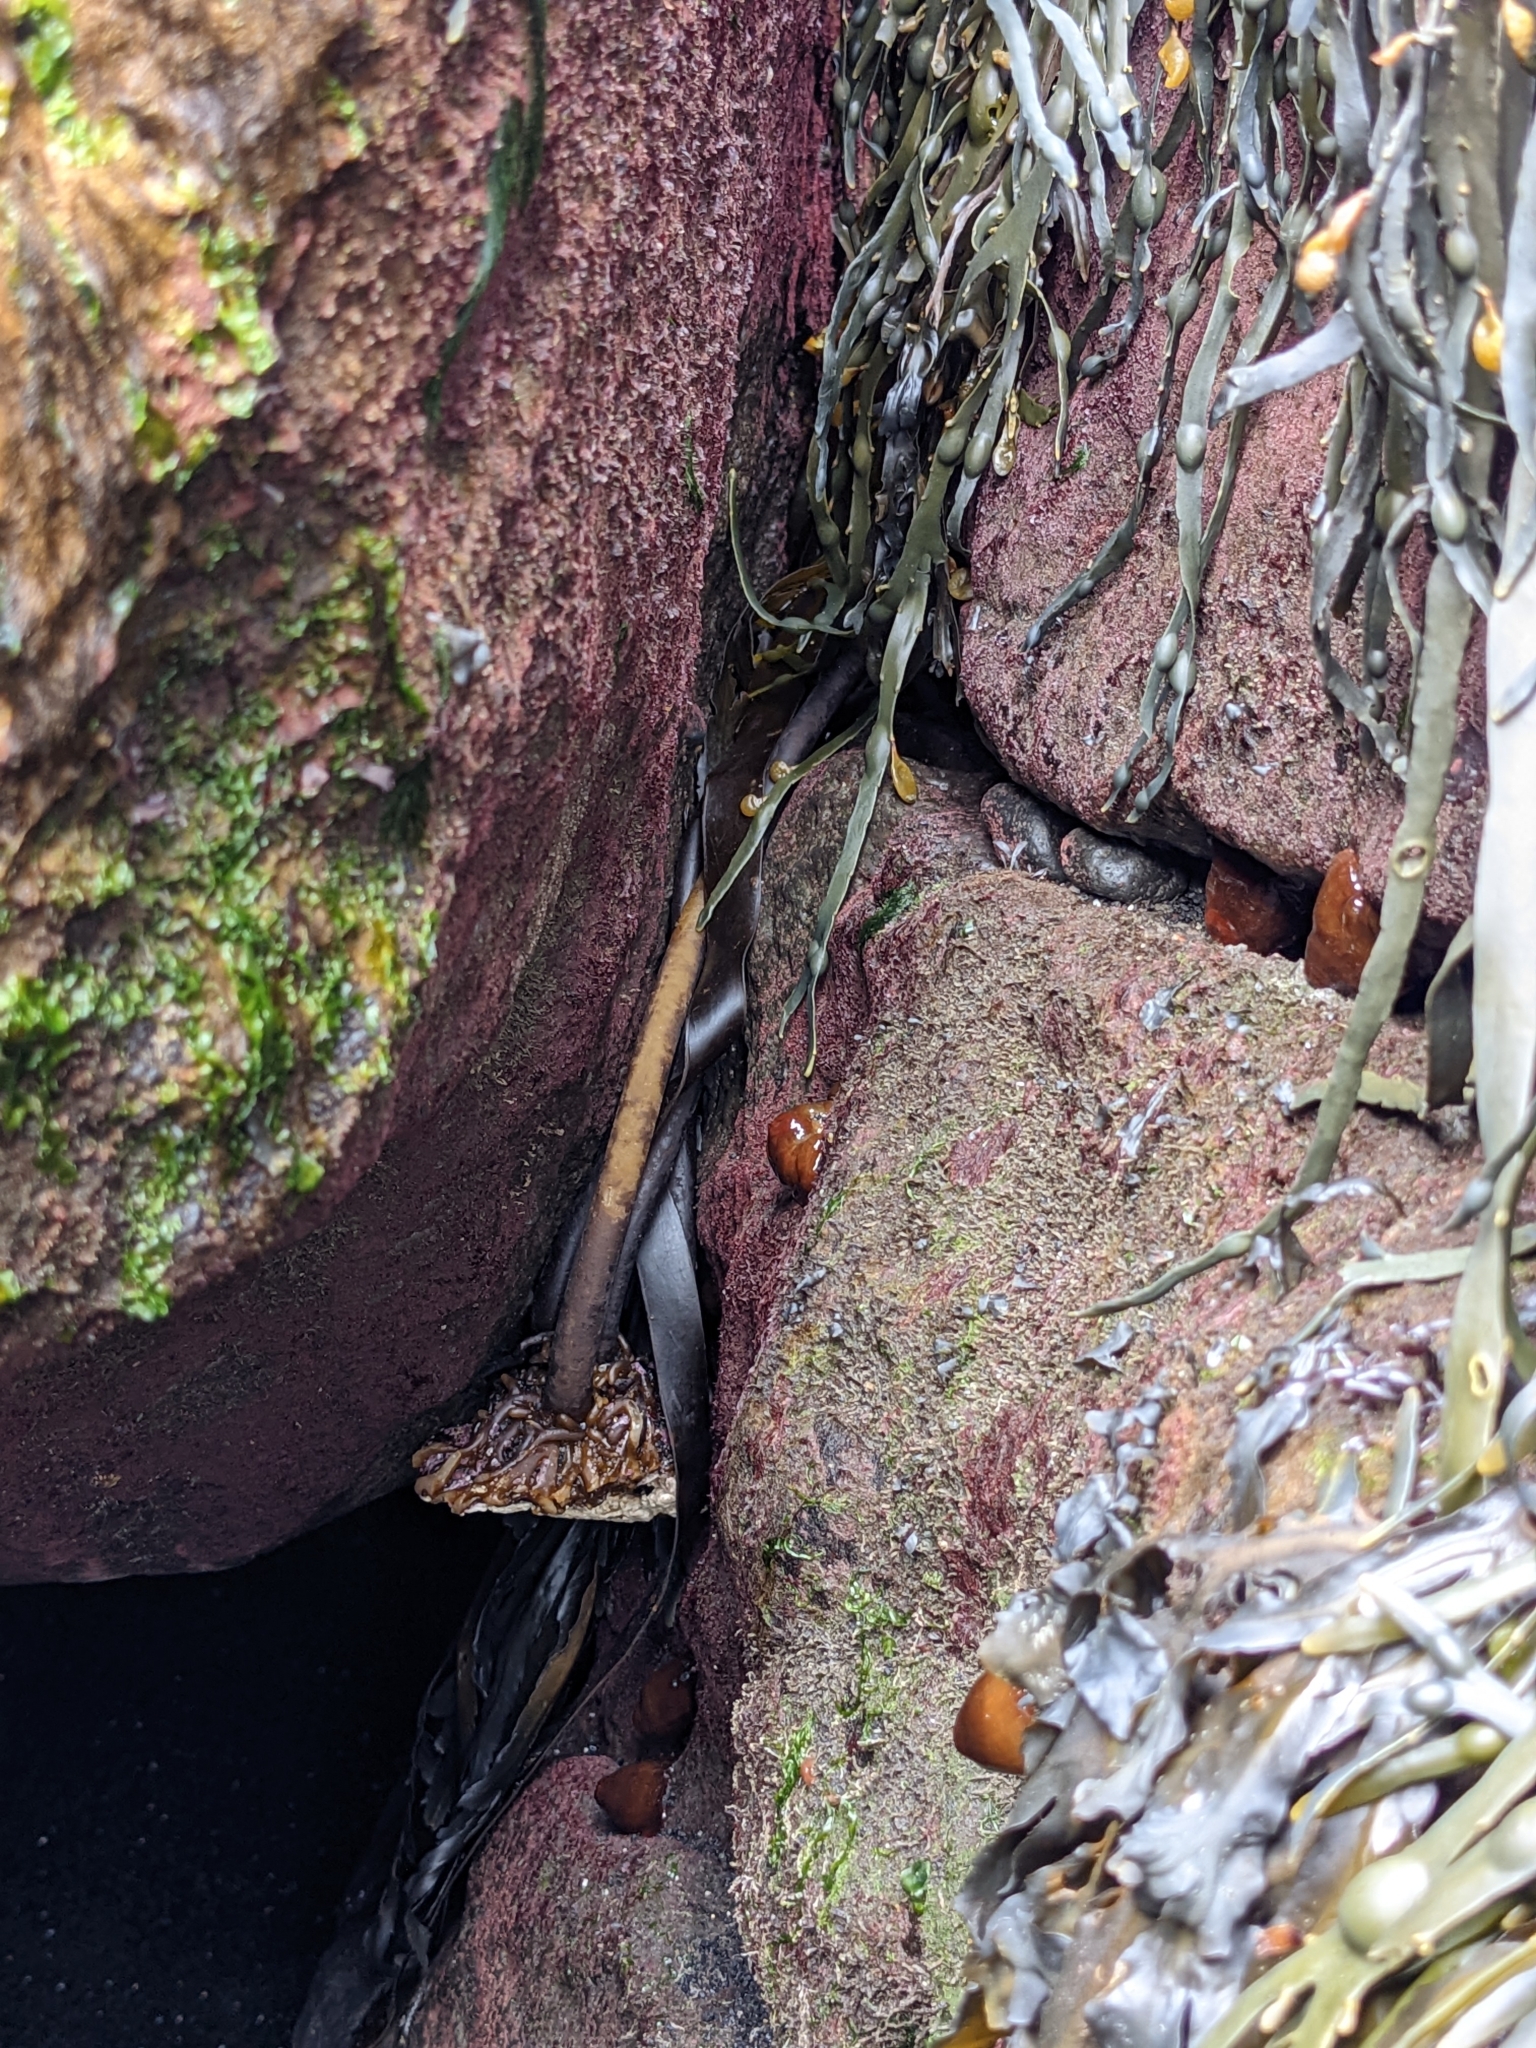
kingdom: Animalia
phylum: Cnidaria
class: Anthozoa
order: Actiniaria
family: Metridiidae
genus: Metridium
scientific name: Metridium senile
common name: Clonal plumose anemone
